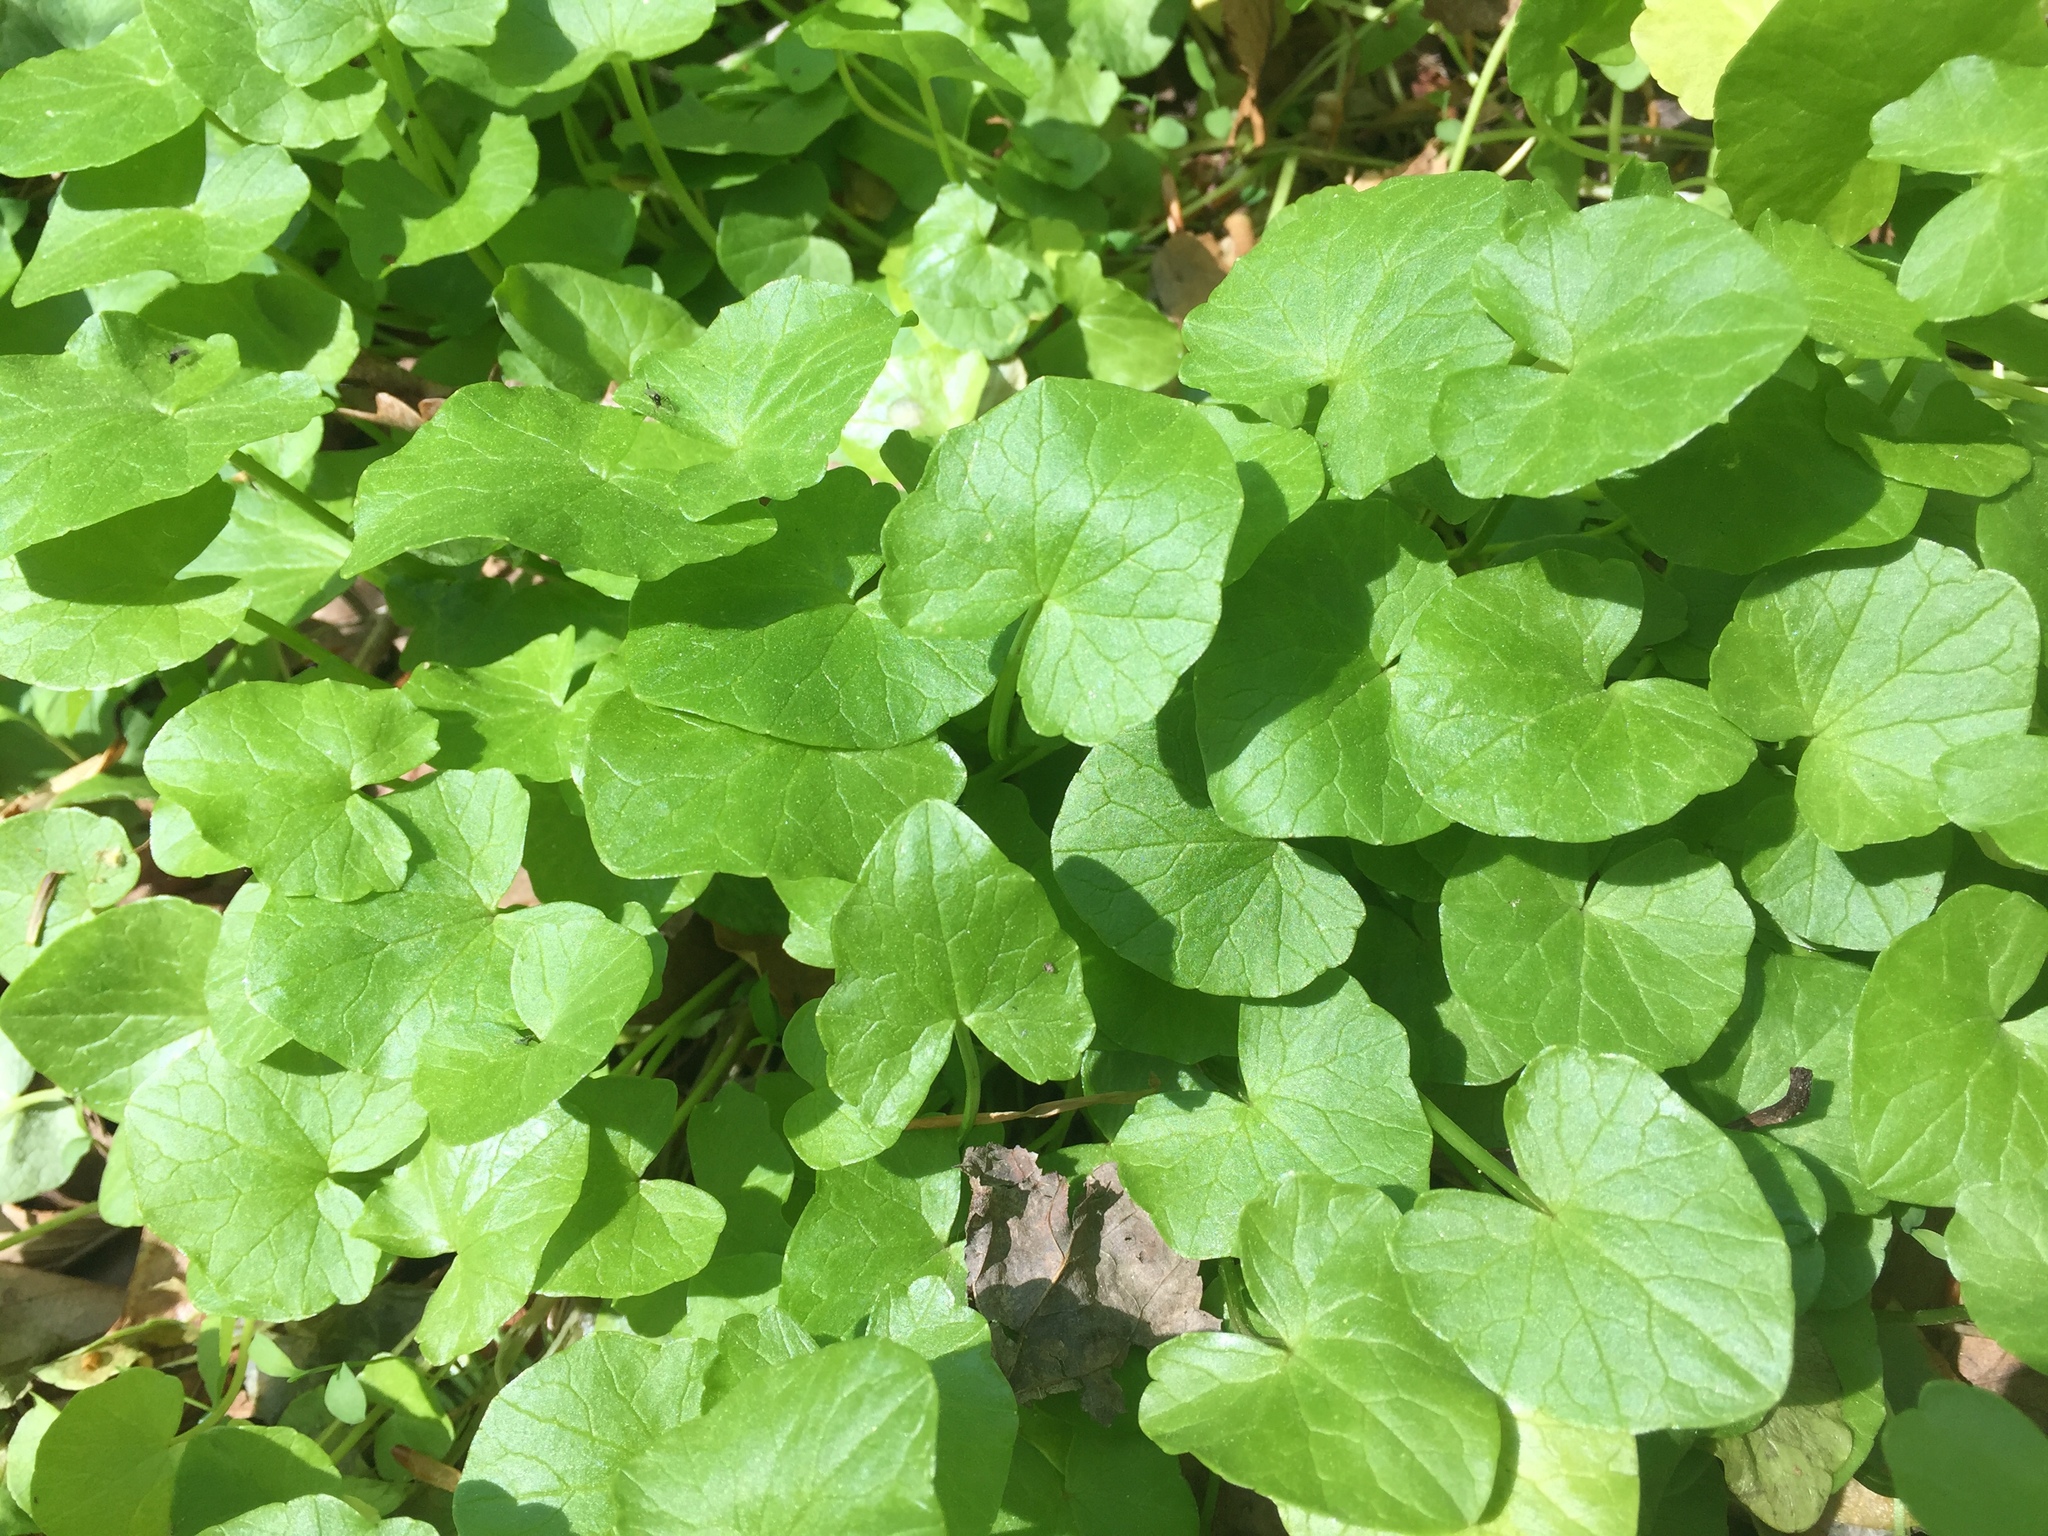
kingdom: Plantae
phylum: Tracheophyta
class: Magnoliopsida
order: Ranunculales
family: Ranunculaceae
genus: Ficaria
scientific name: Ficaria verna
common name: Lesser celandine
